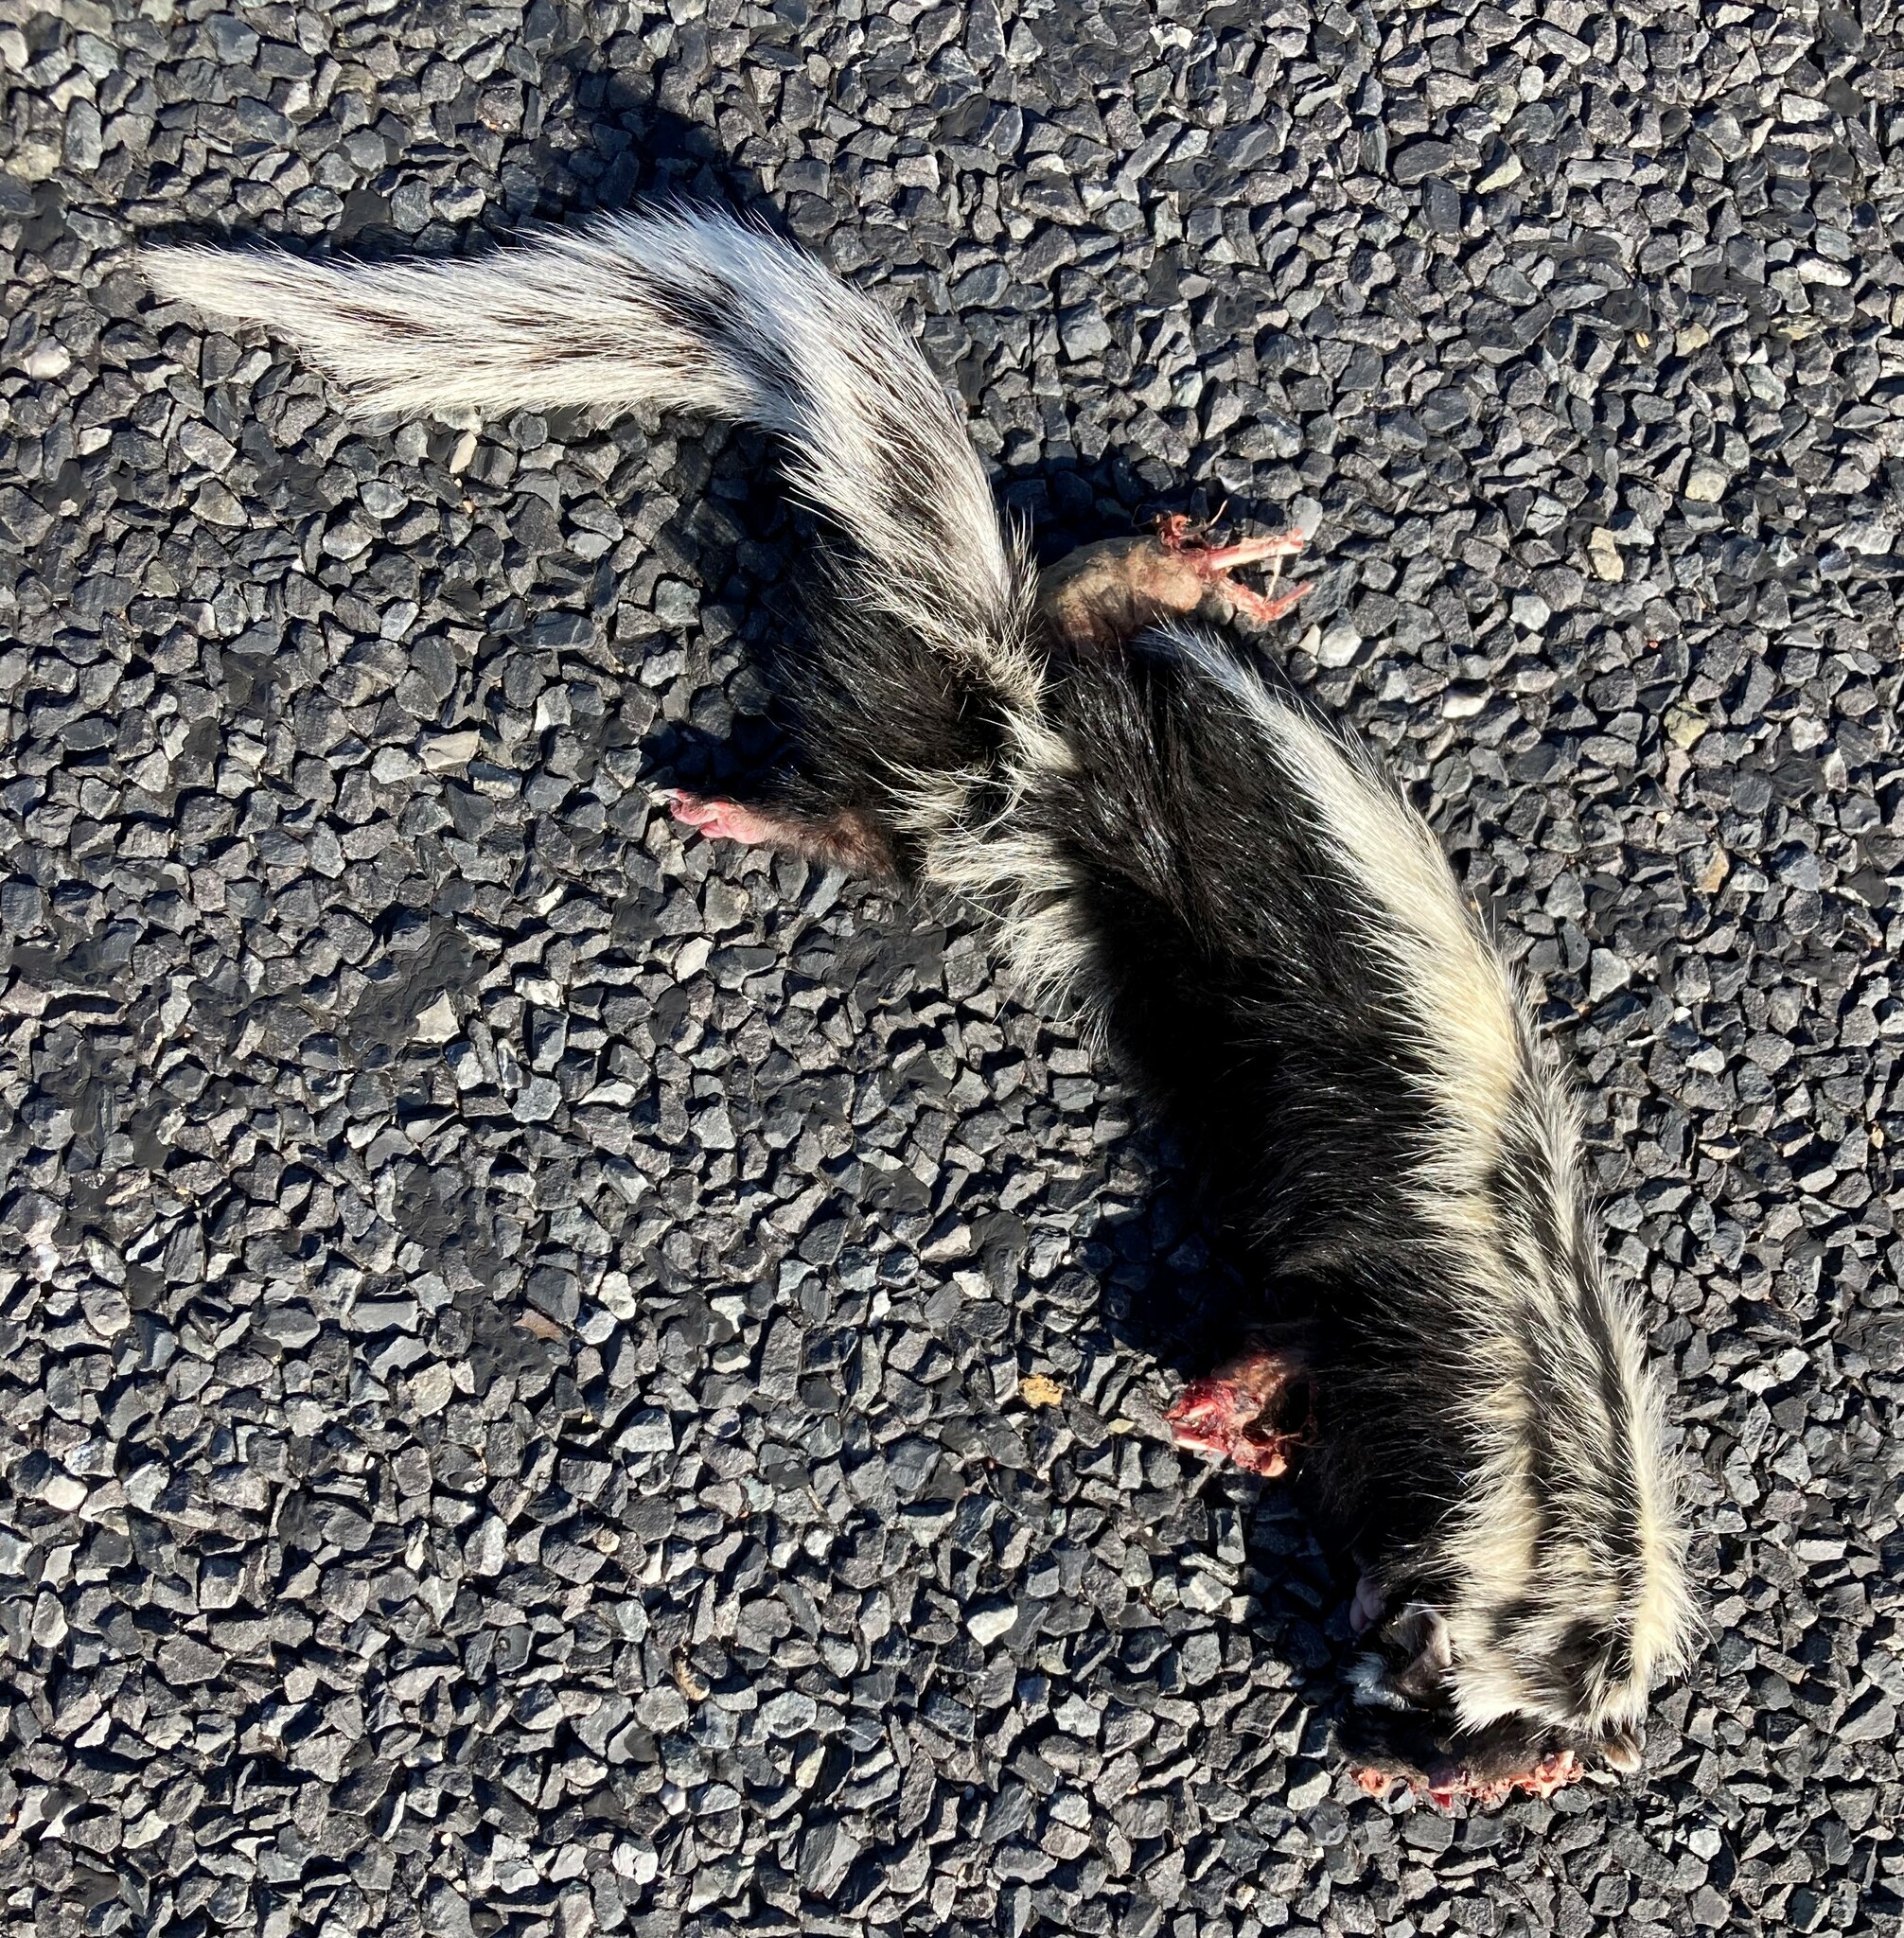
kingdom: Animalia
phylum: Chordata
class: Mammalia
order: Carnivora
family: Mustelidae
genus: Ictonyx
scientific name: Ictonyx striatus
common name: Striped polecat
